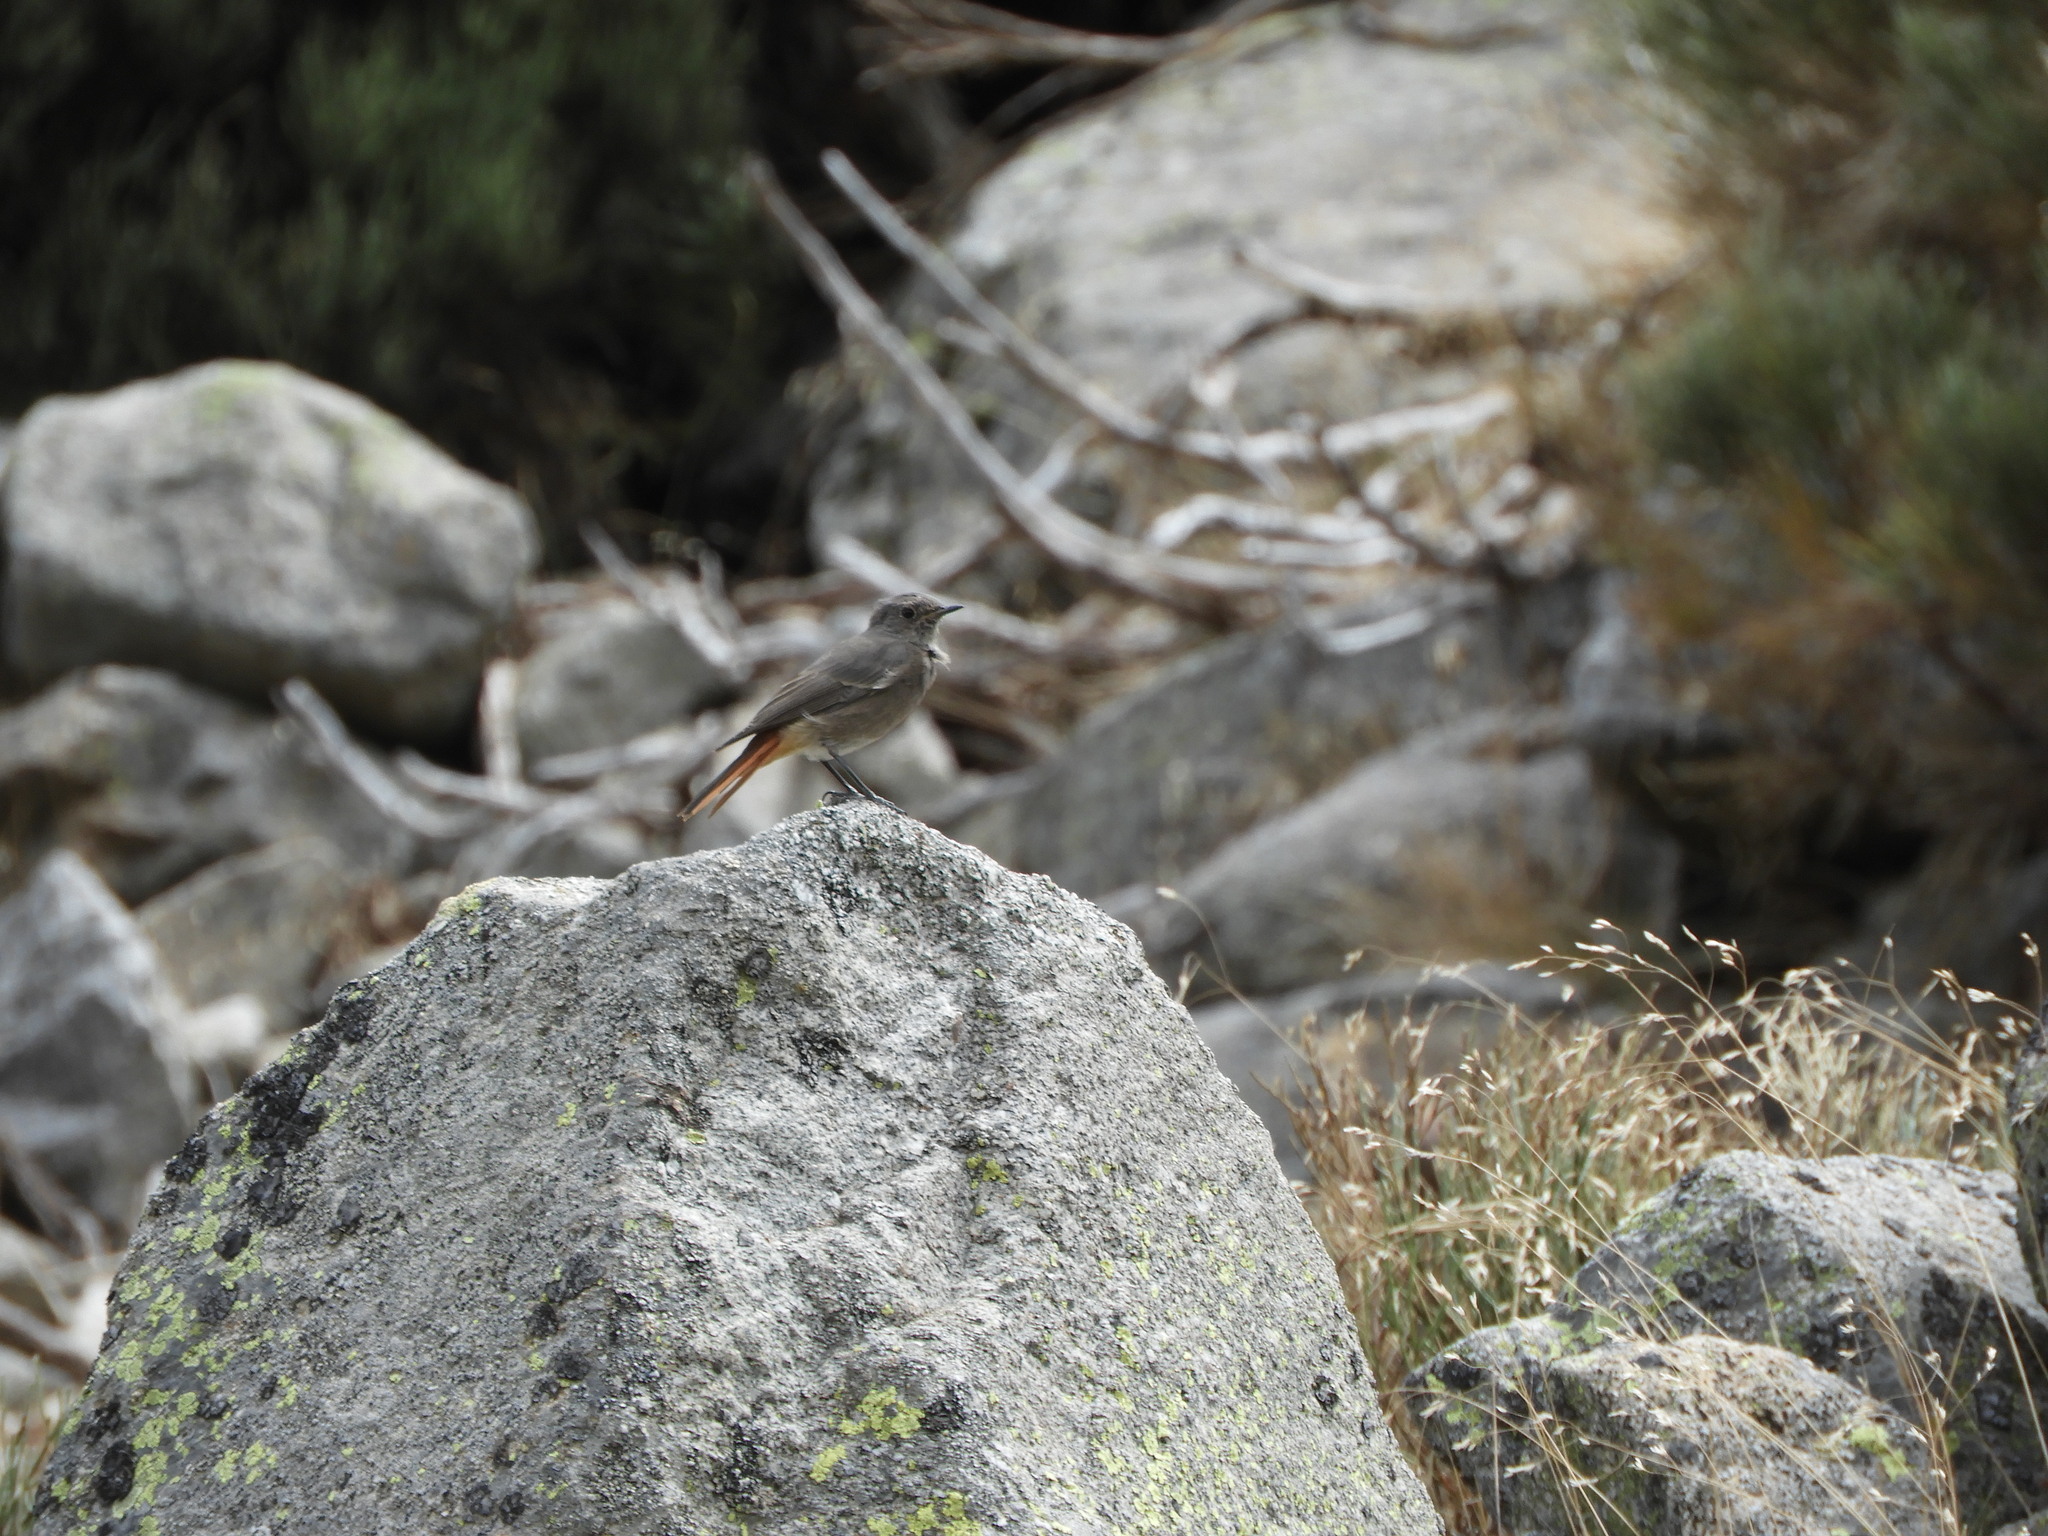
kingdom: Animalia
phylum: Chordata
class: Aves
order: Passeriformes
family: Muscicapidae
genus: Phoenicurus
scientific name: Phoenicurus ochruros
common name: Black redstart
